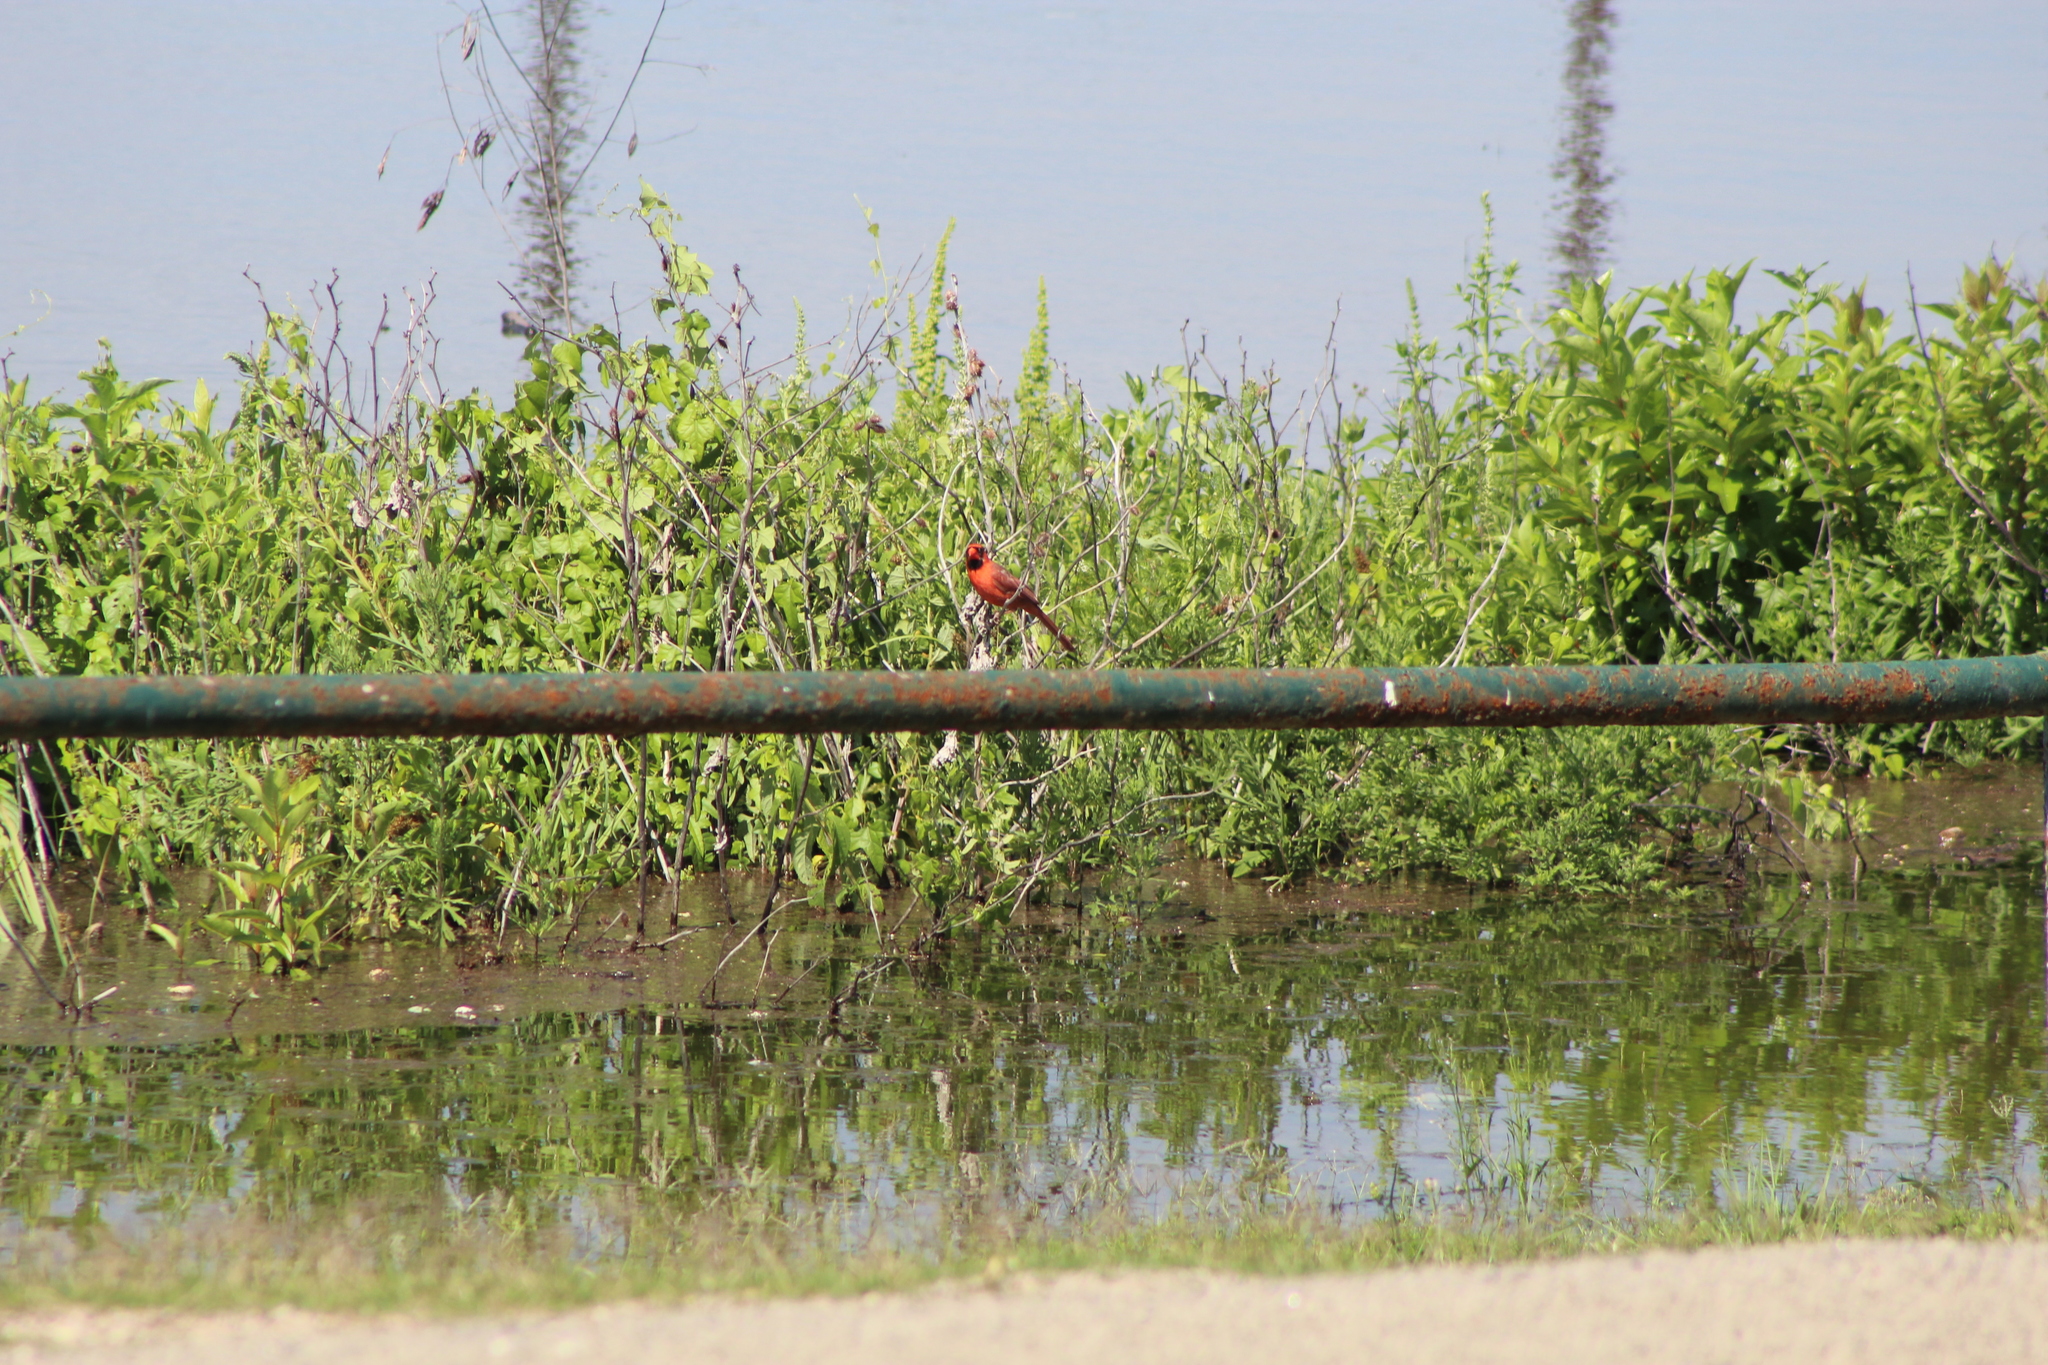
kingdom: Animalia
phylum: Chordata
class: Aves
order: Passeriformes
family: Cardinalidae
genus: Cardinalis
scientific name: Cardinalis cardinalis
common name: Northern cardinal
